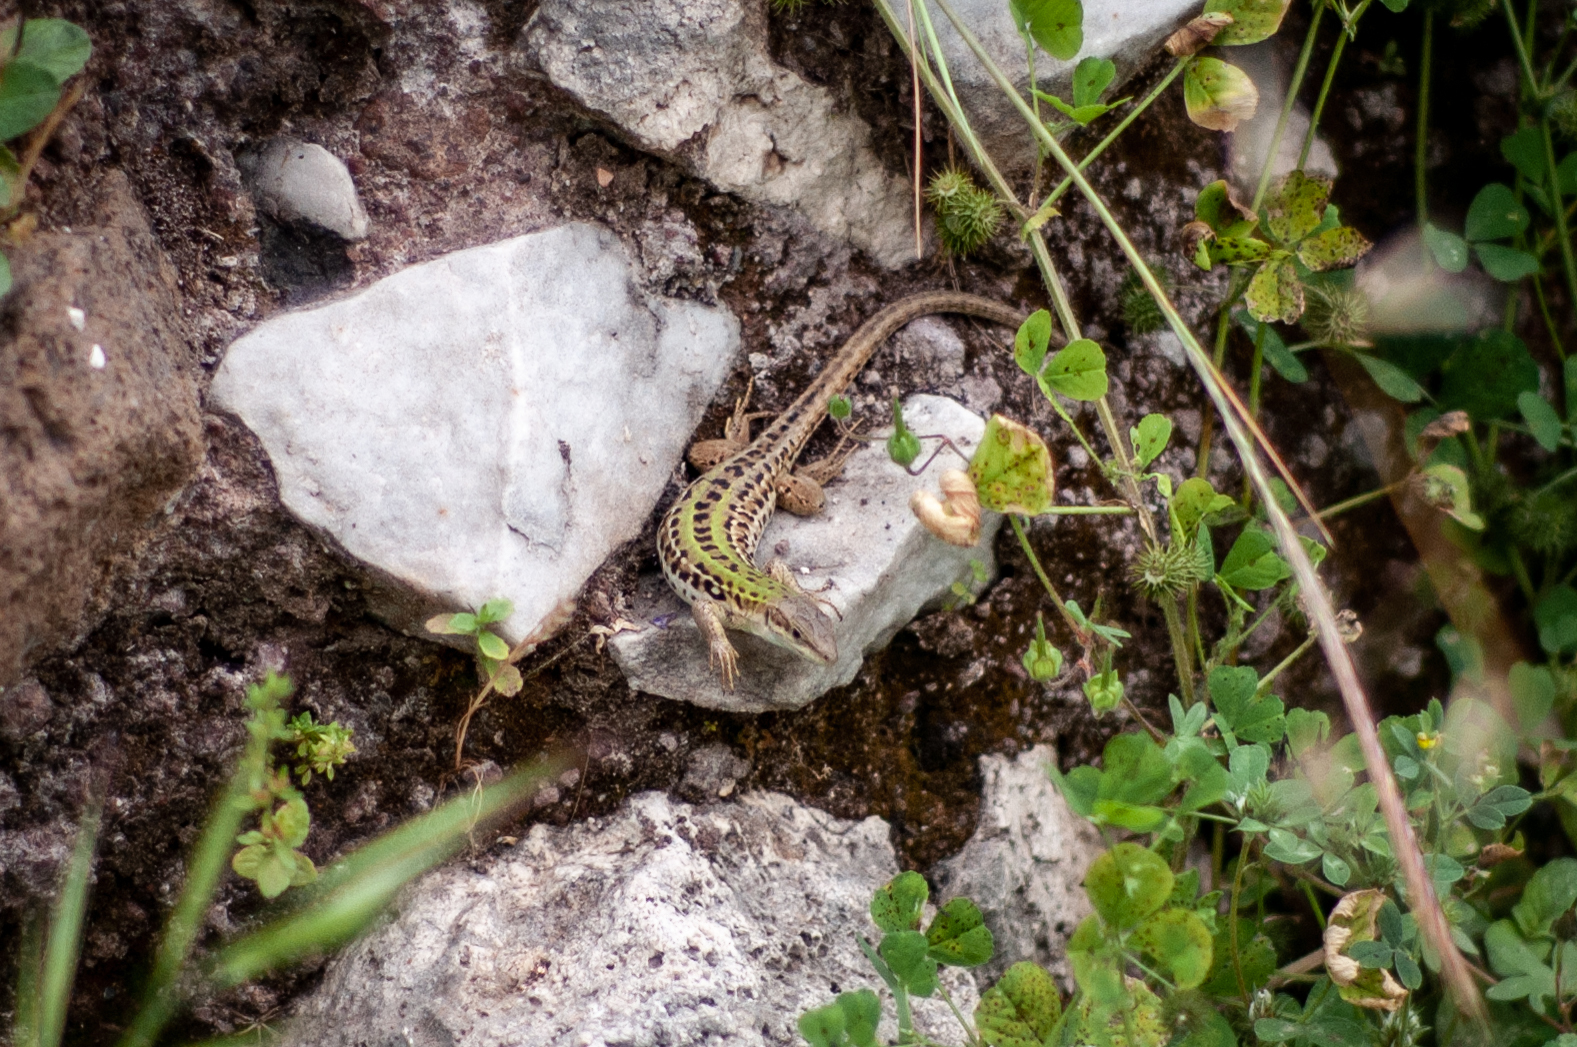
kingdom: Animalia
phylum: Chordata
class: Squamata
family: Lacertidae
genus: Podarcis
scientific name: Podarcis siculus
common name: Italian wall lizard
